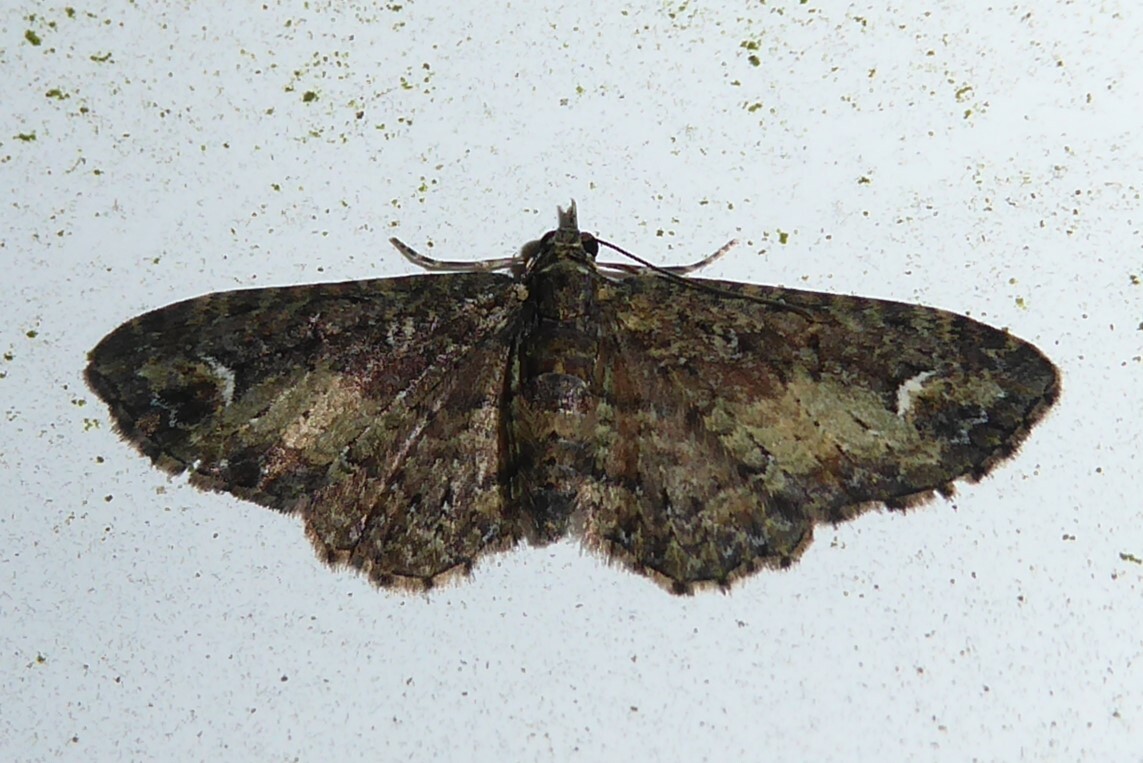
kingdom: Animalia
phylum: Arthropoda
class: Insecta
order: Lepidoptera
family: Geometridae
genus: Pasiphilodes
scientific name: Pasiphilodes testulata
